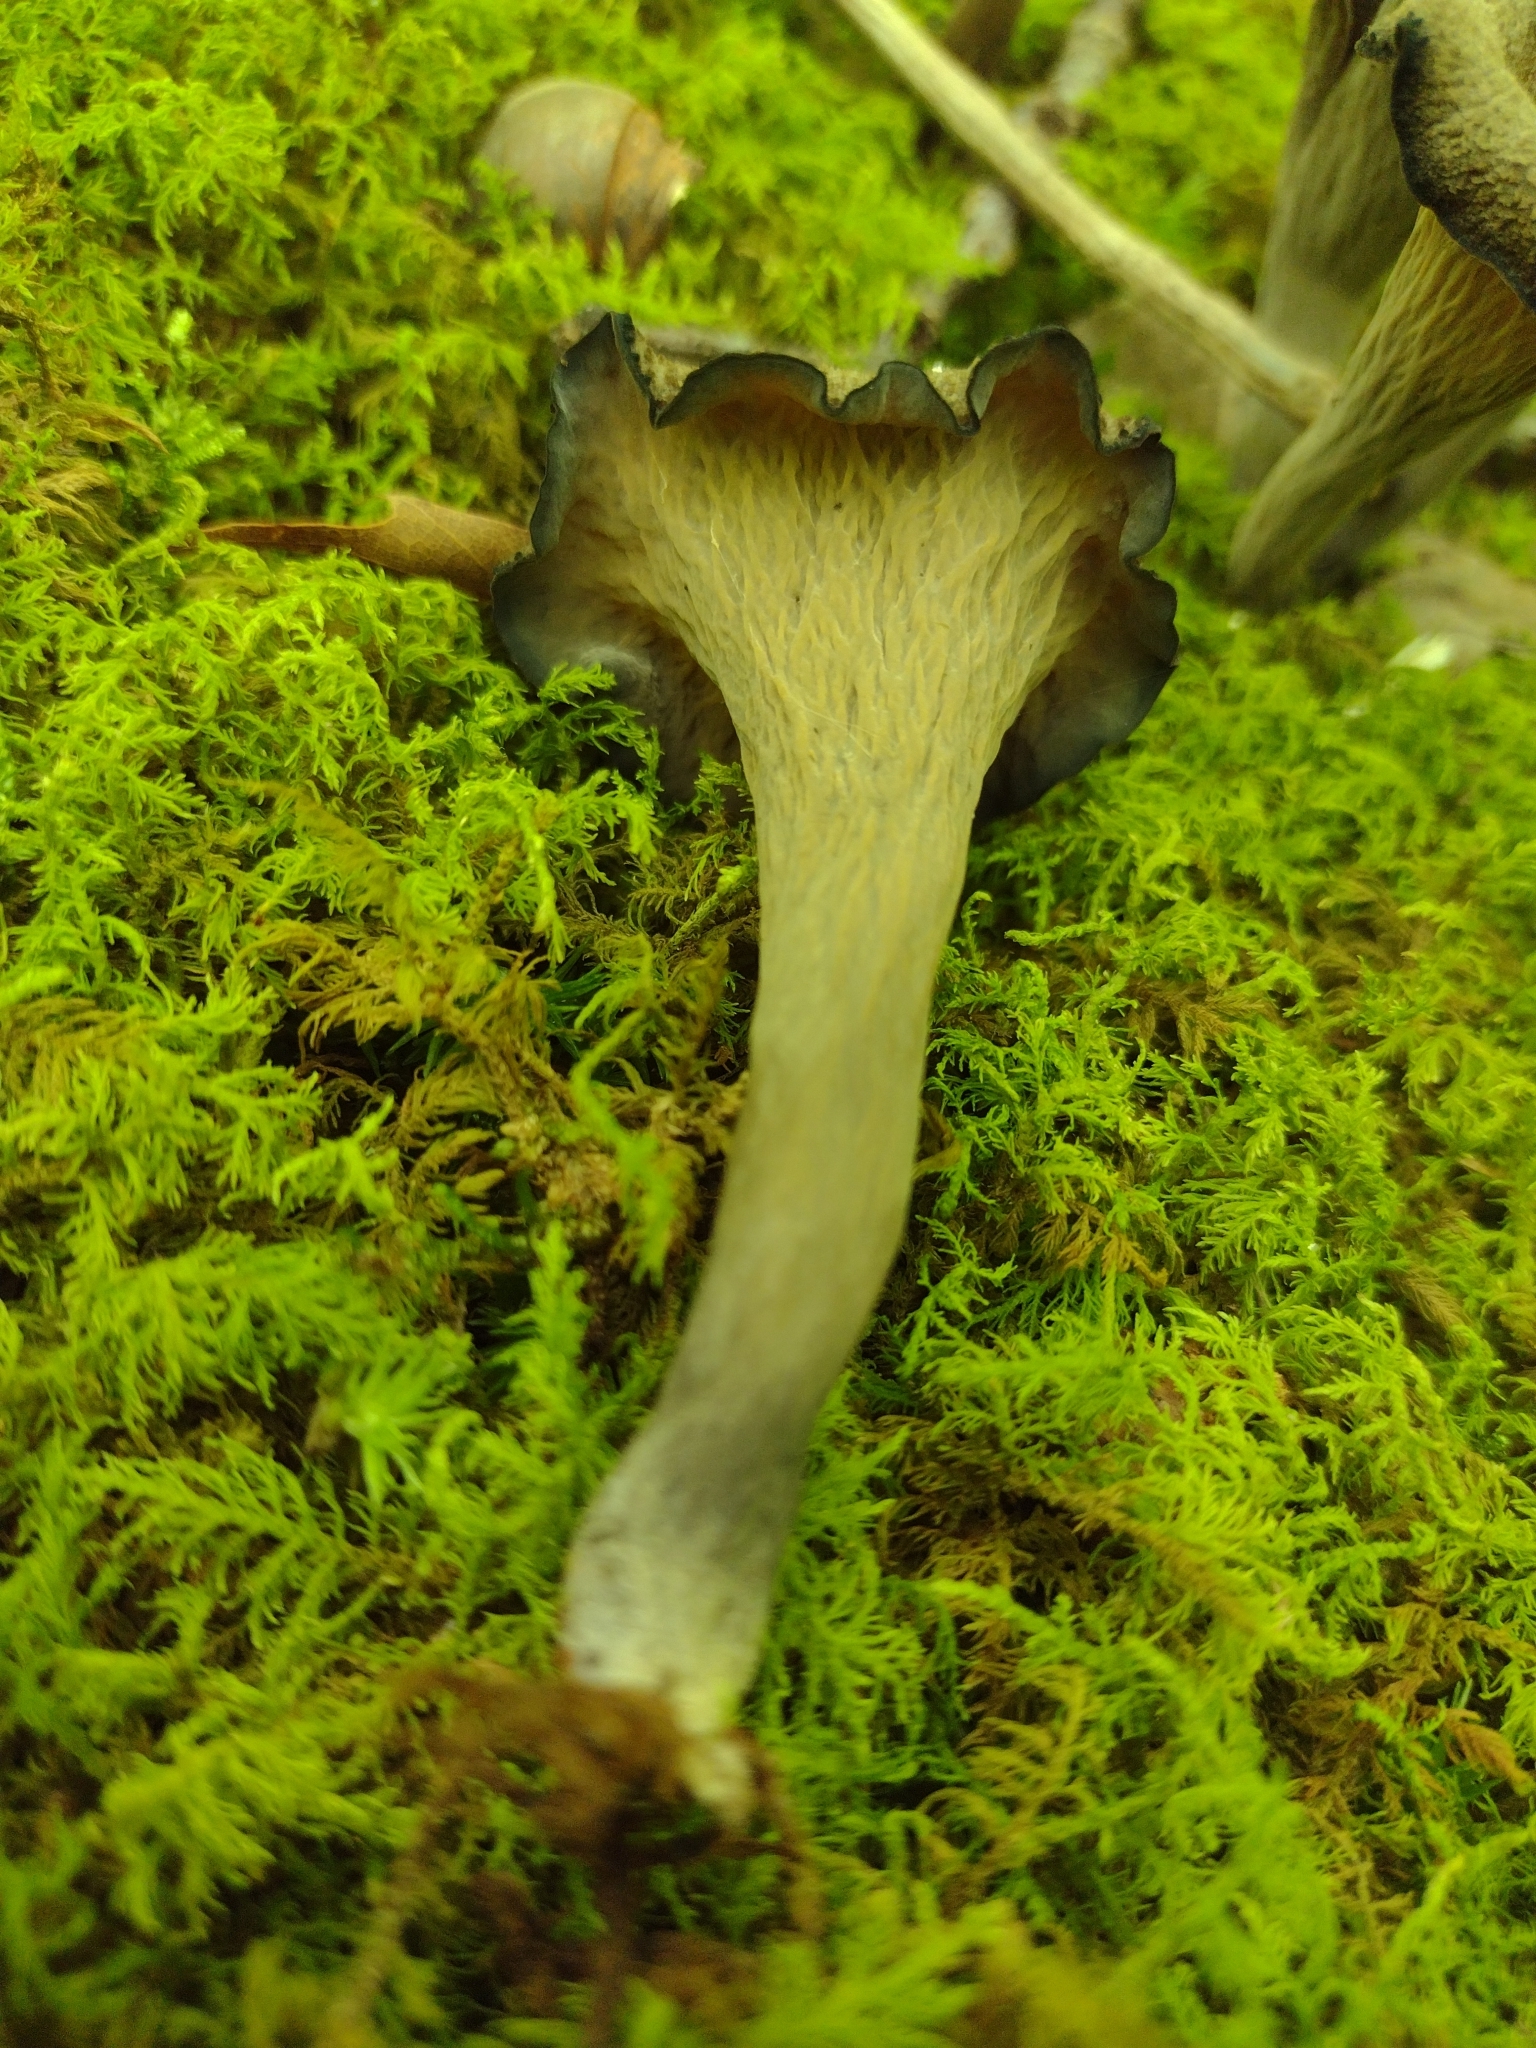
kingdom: Fungi
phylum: Basidiomycota
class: Agaricomycetes
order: Cantharellales
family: Hydnaceae
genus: Craterellus
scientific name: Craterellus cornucopioides
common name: Horn of plenty
